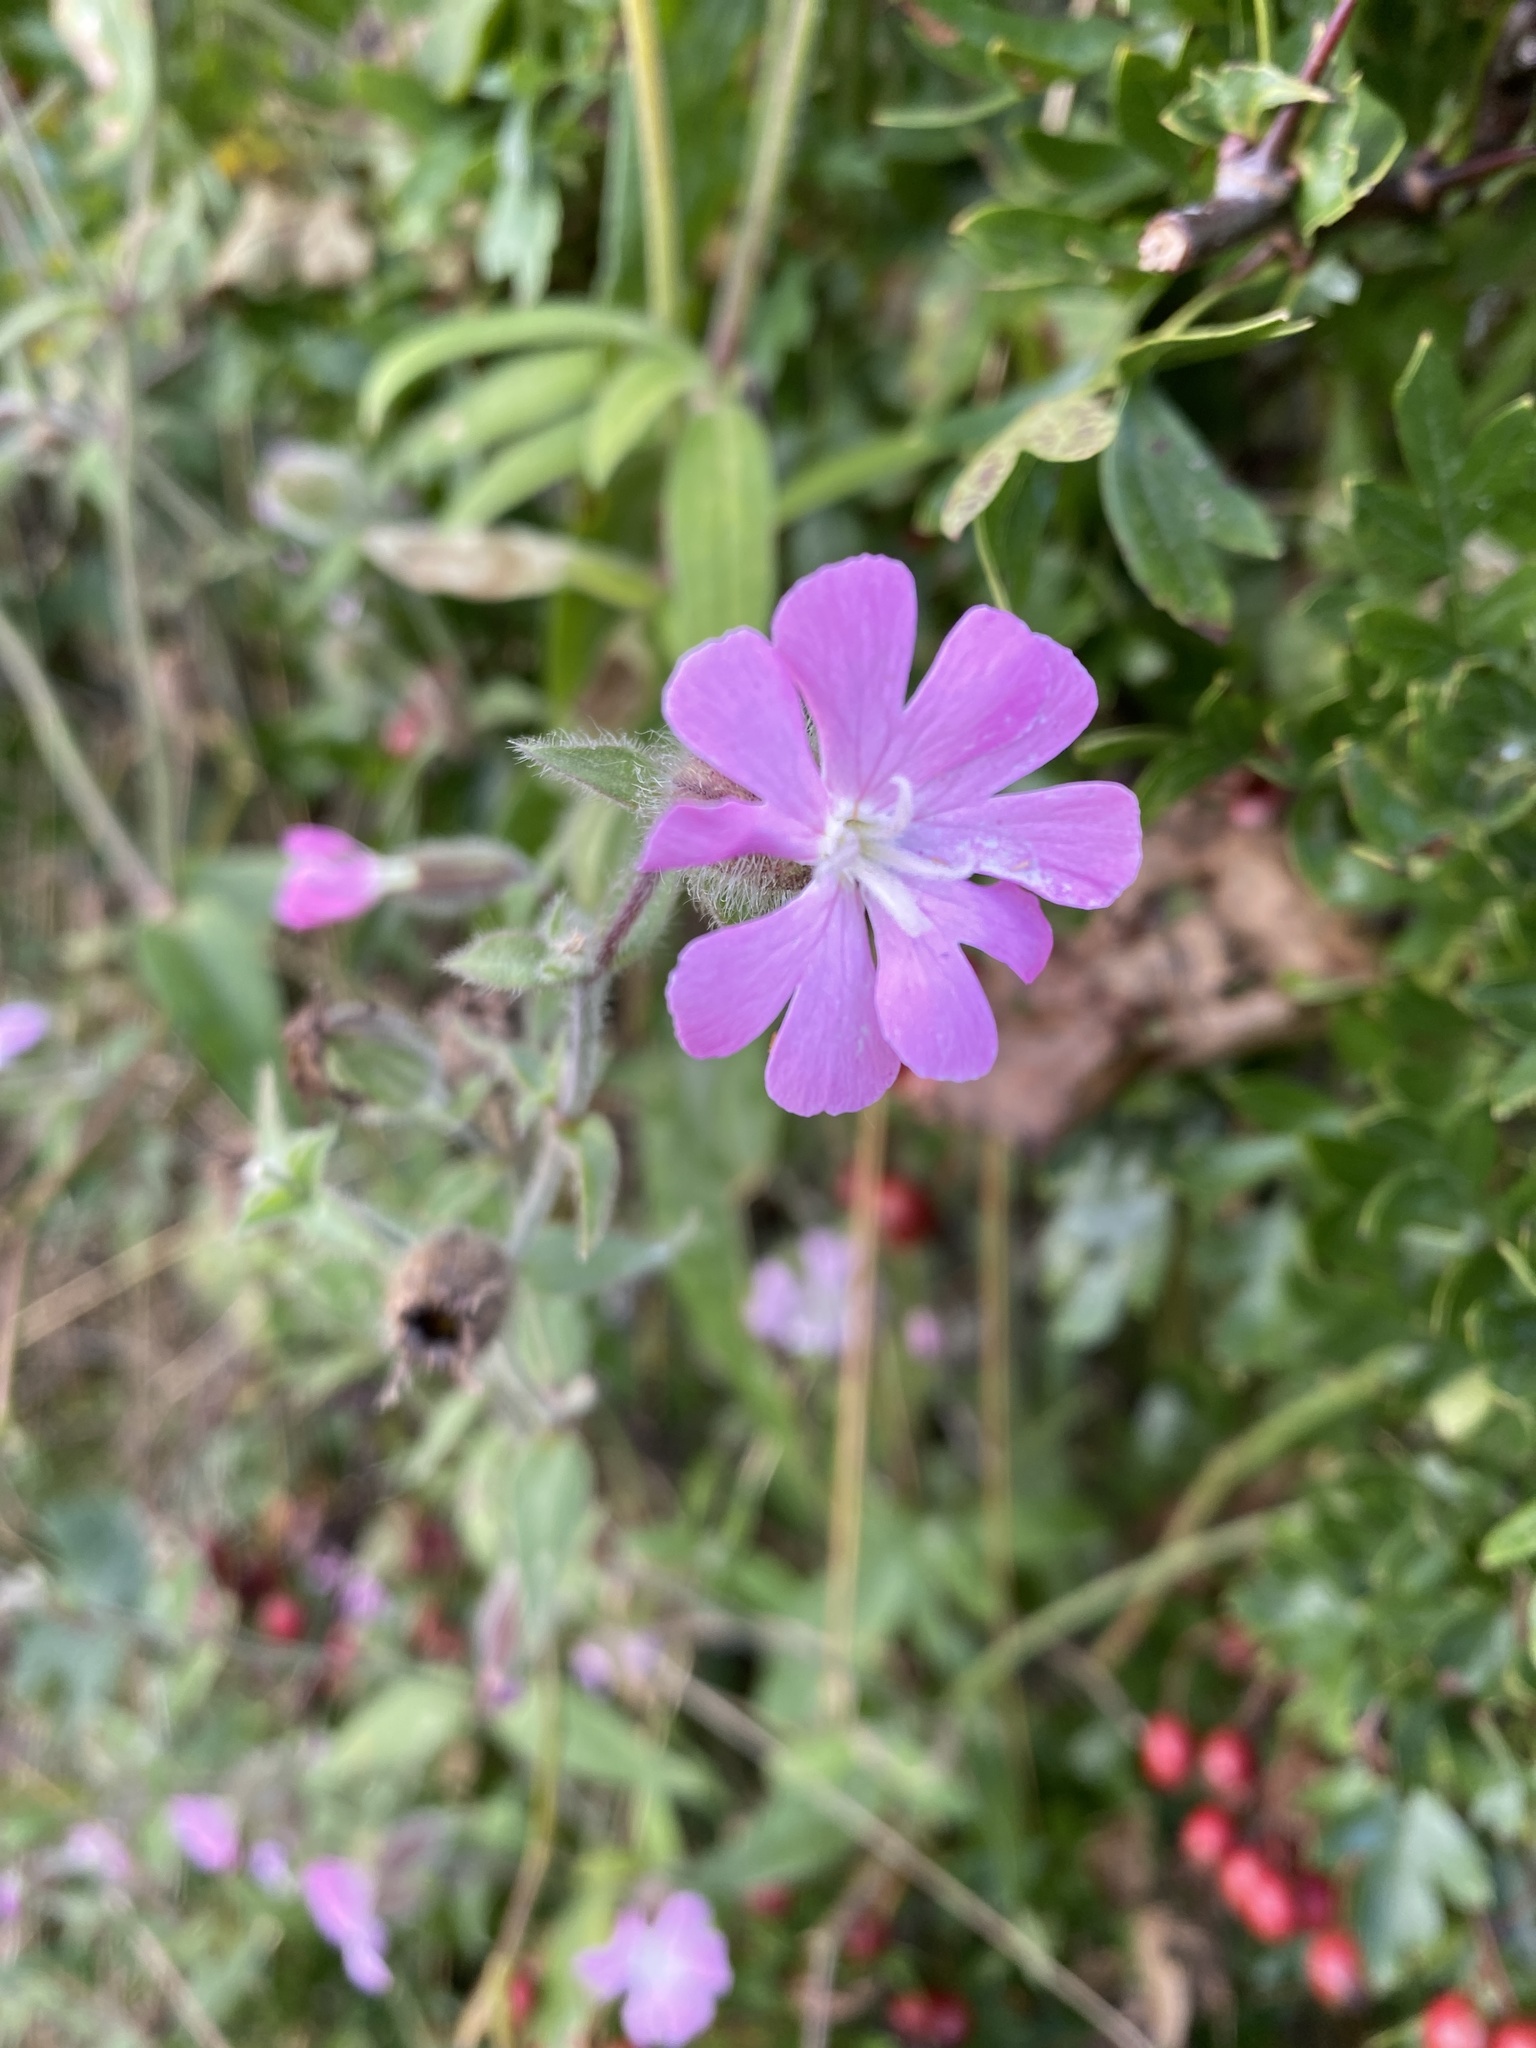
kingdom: Plantae
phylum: Tracheophyta
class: Magnoliopsida
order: Caryophyllales
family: Caryophyllaceae
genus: Silene
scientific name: Silene dioica
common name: Red campion
